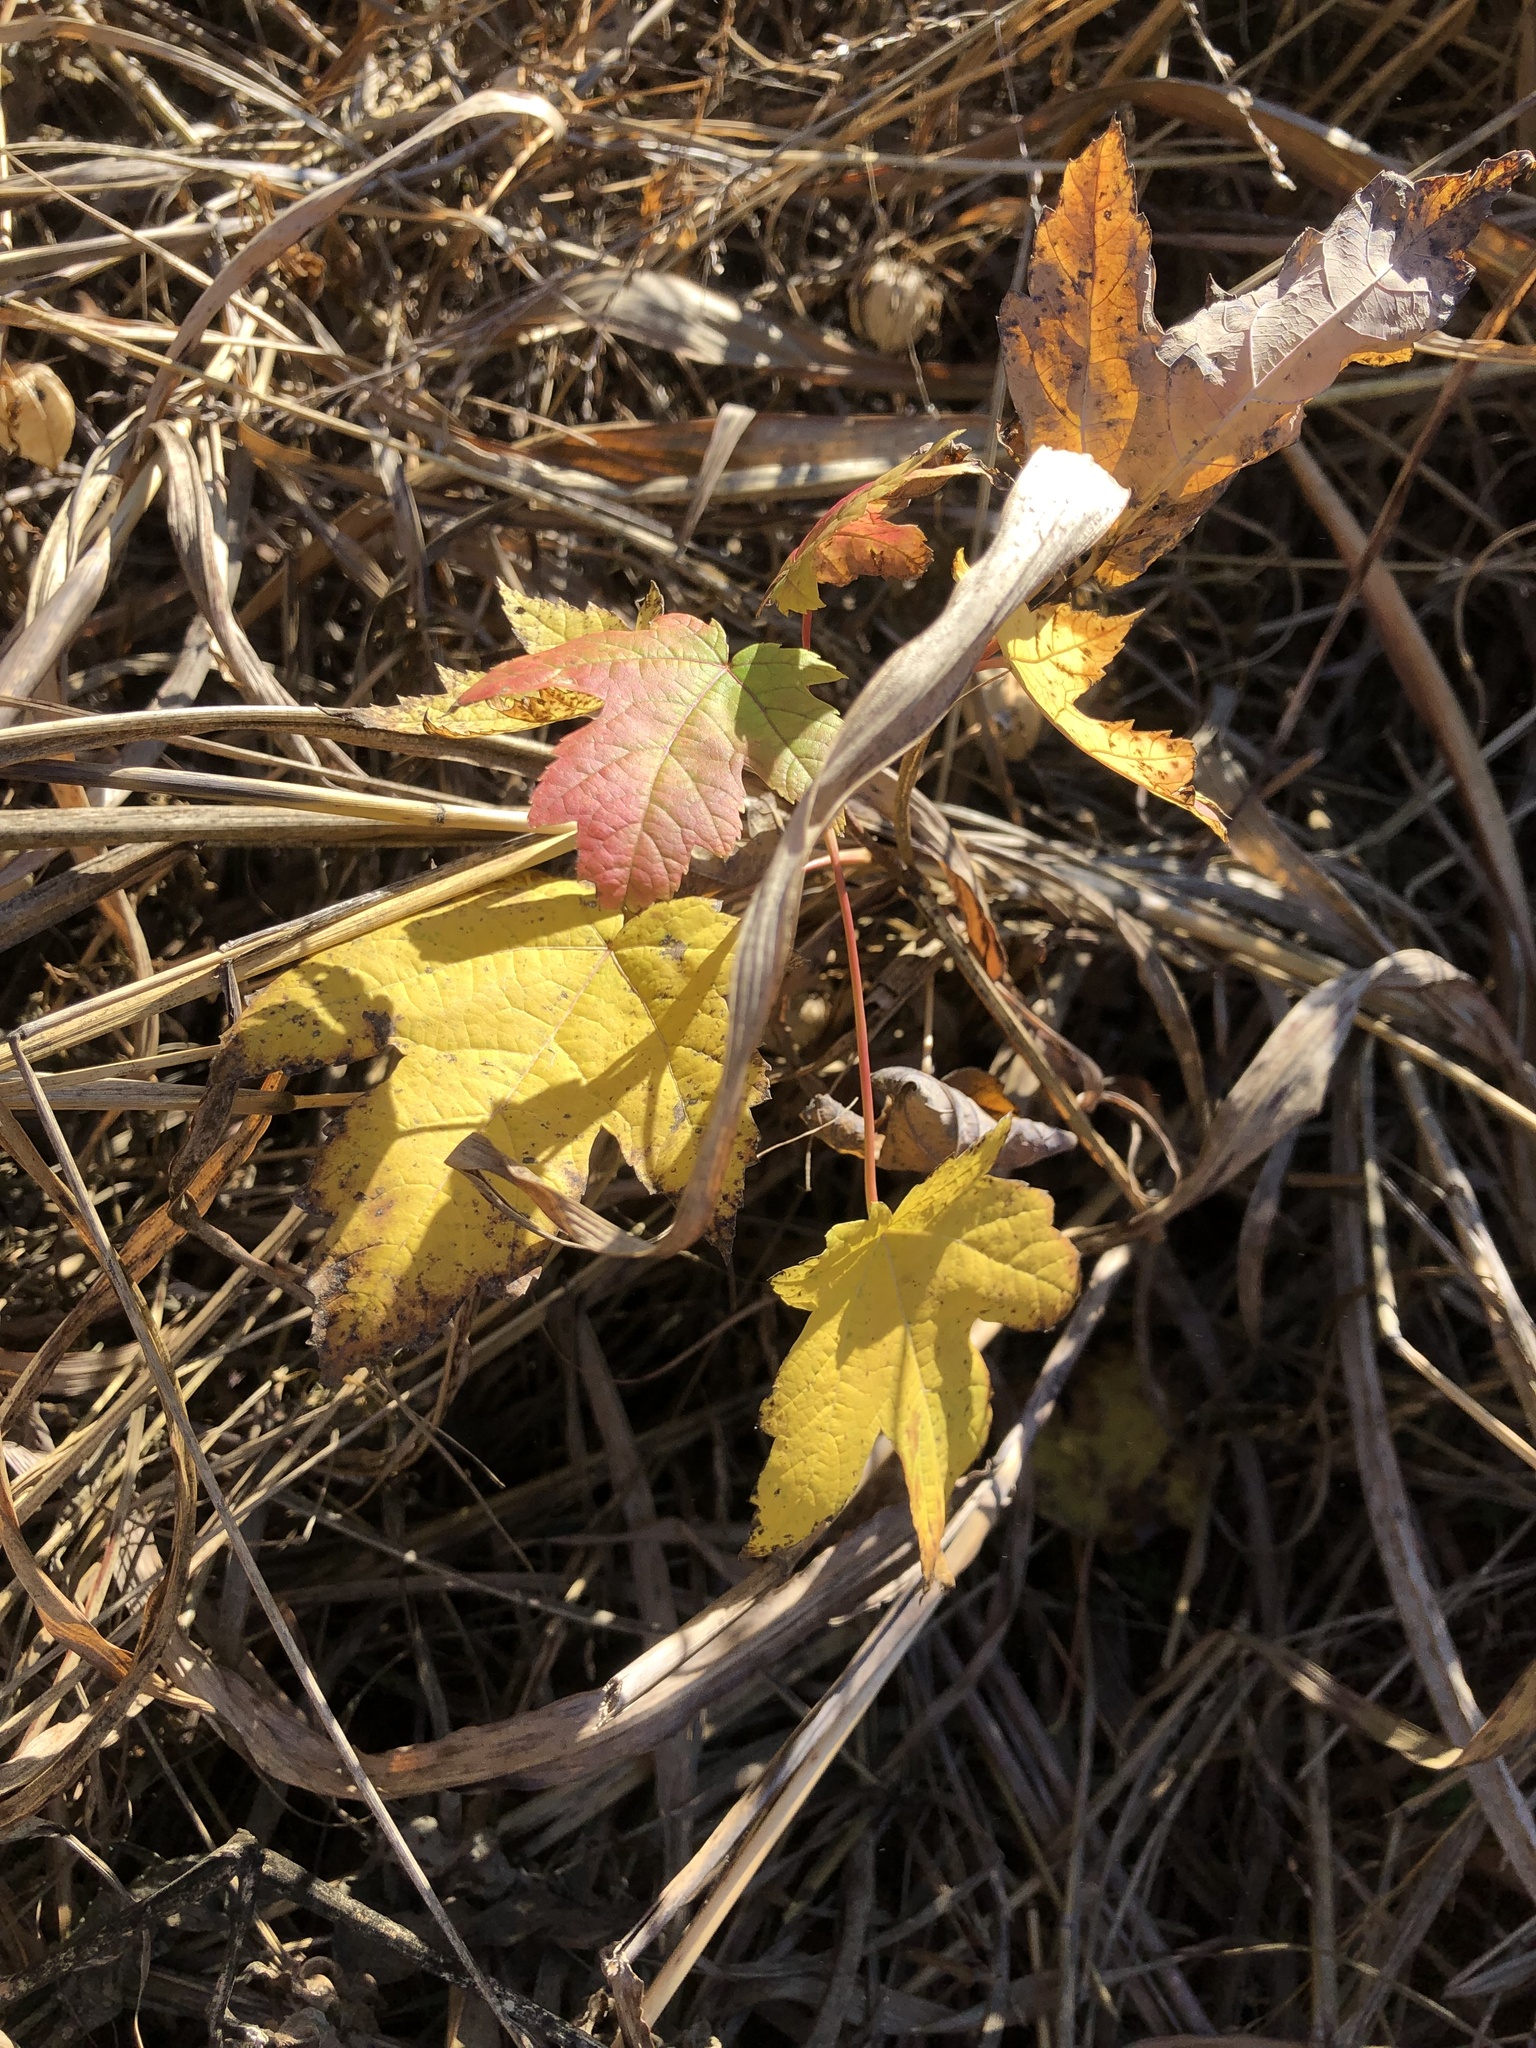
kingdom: Plantae
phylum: Tracheophyta
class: Magnoliopsida
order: Saxifragales
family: Altingiaceae
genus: Liquidambar
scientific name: Liquidambar styraciflua
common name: Sweet gum
